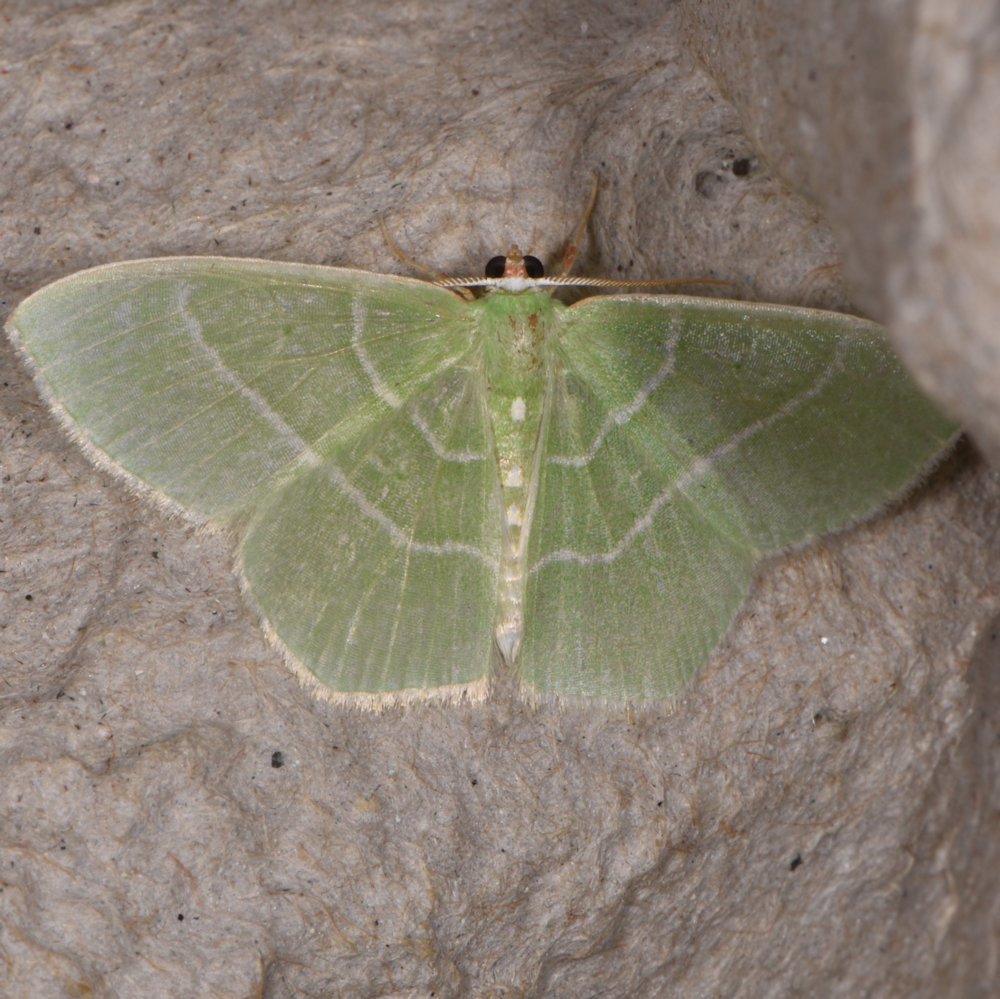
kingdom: Animalia
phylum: Arthropoda
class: Insecta
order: Lepidoptera
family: Geometridae
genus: Nemoria
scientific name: Nemoria mimosaria
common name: White-fringed emerald
